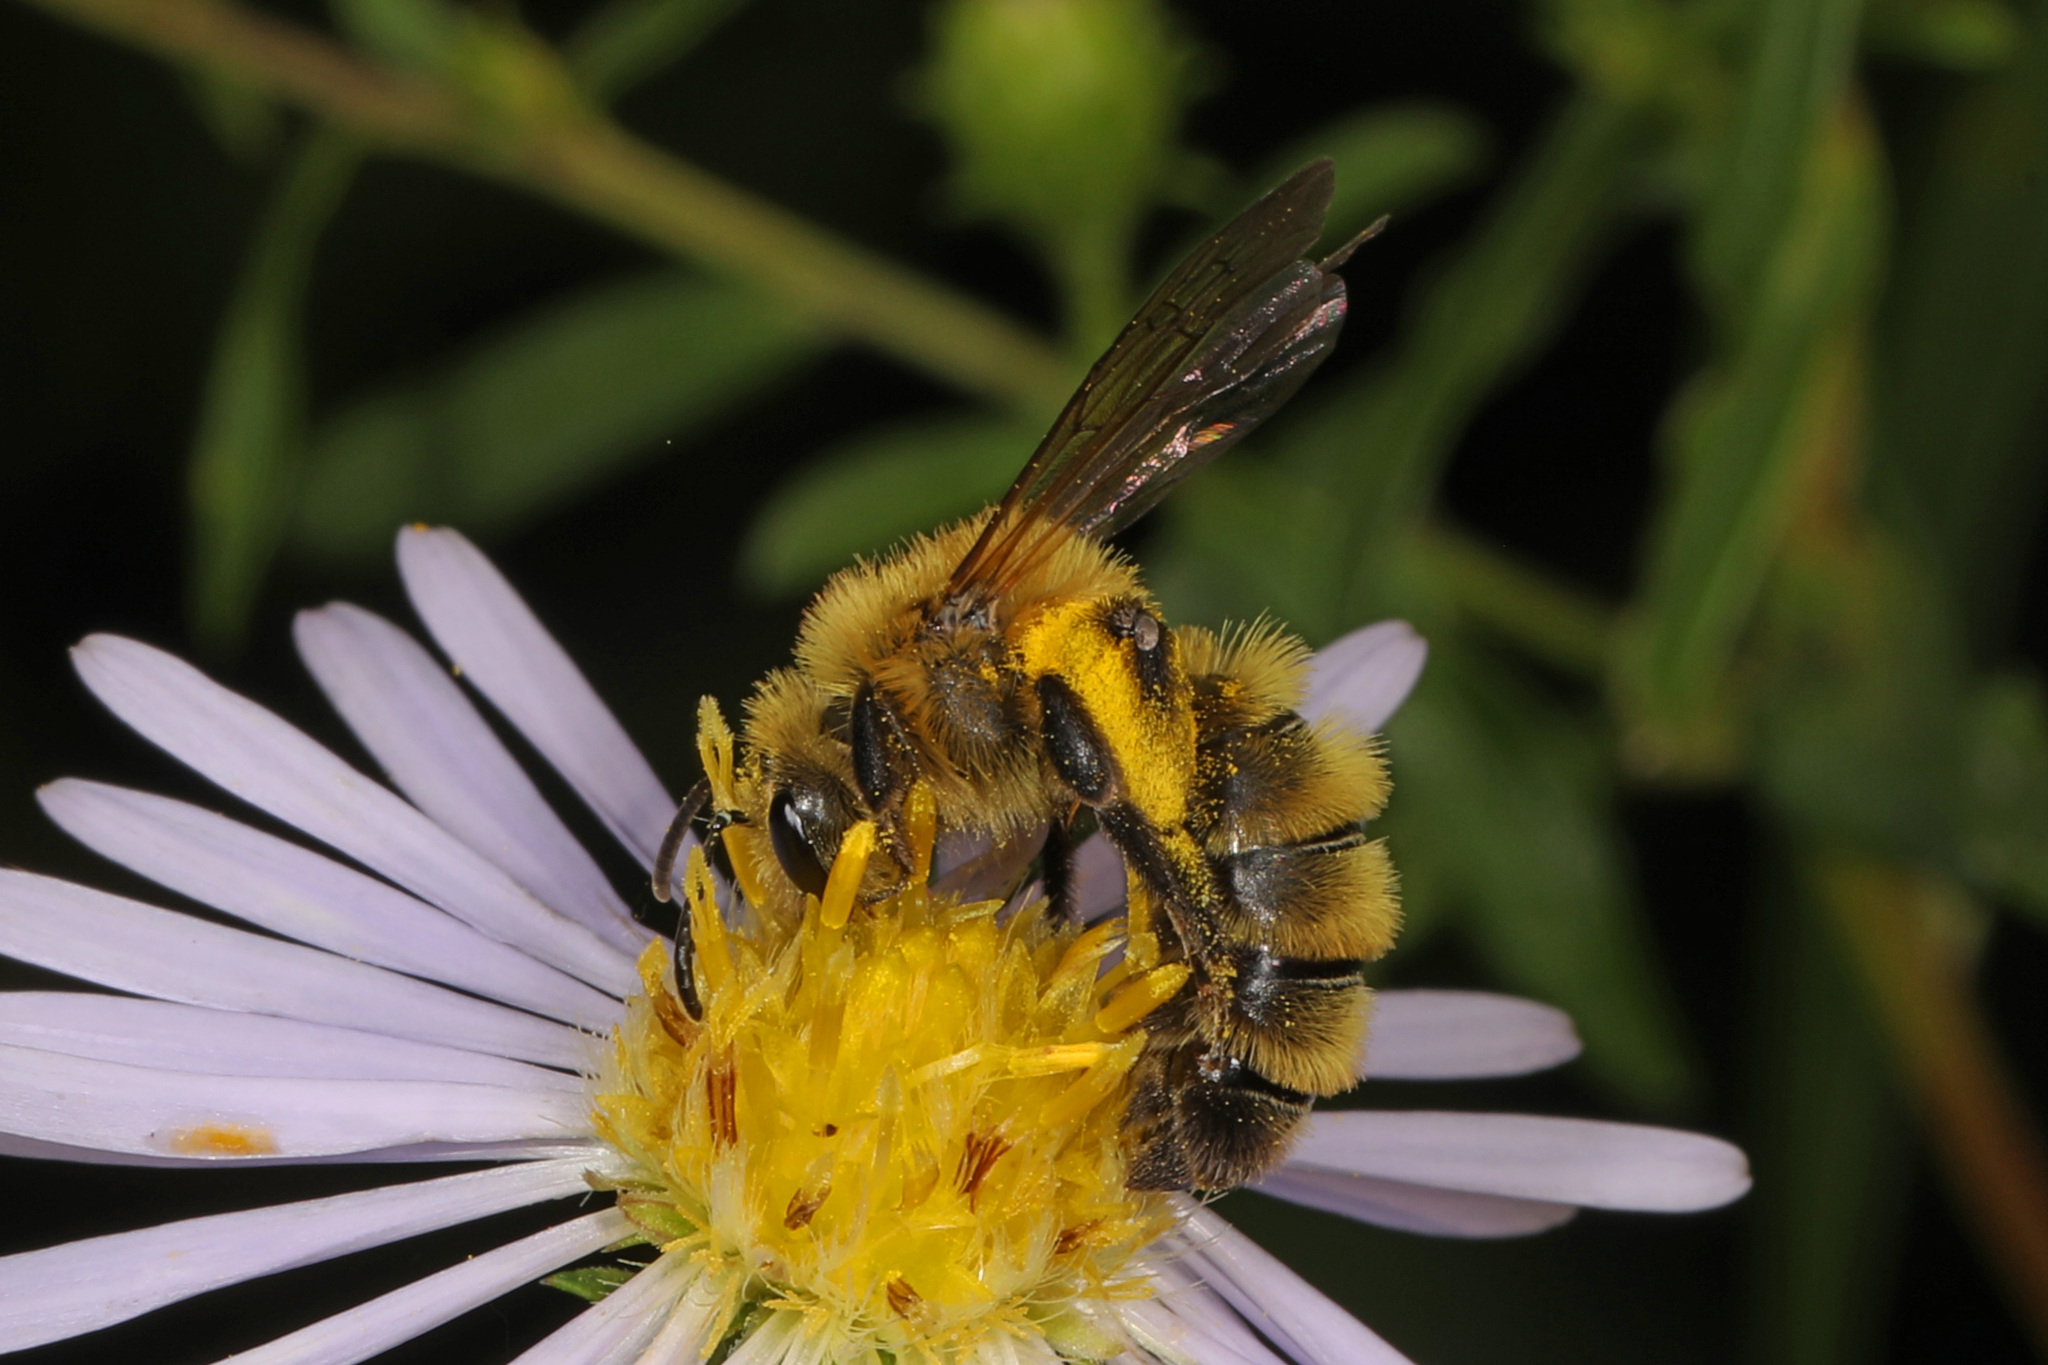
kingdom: Animalia
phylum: Arthropoda
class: Insecta
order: Hymenoptera
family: Andrenidae
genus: Andrena
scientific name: Andrena hirticincta
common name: Hairy-banded mining bee
